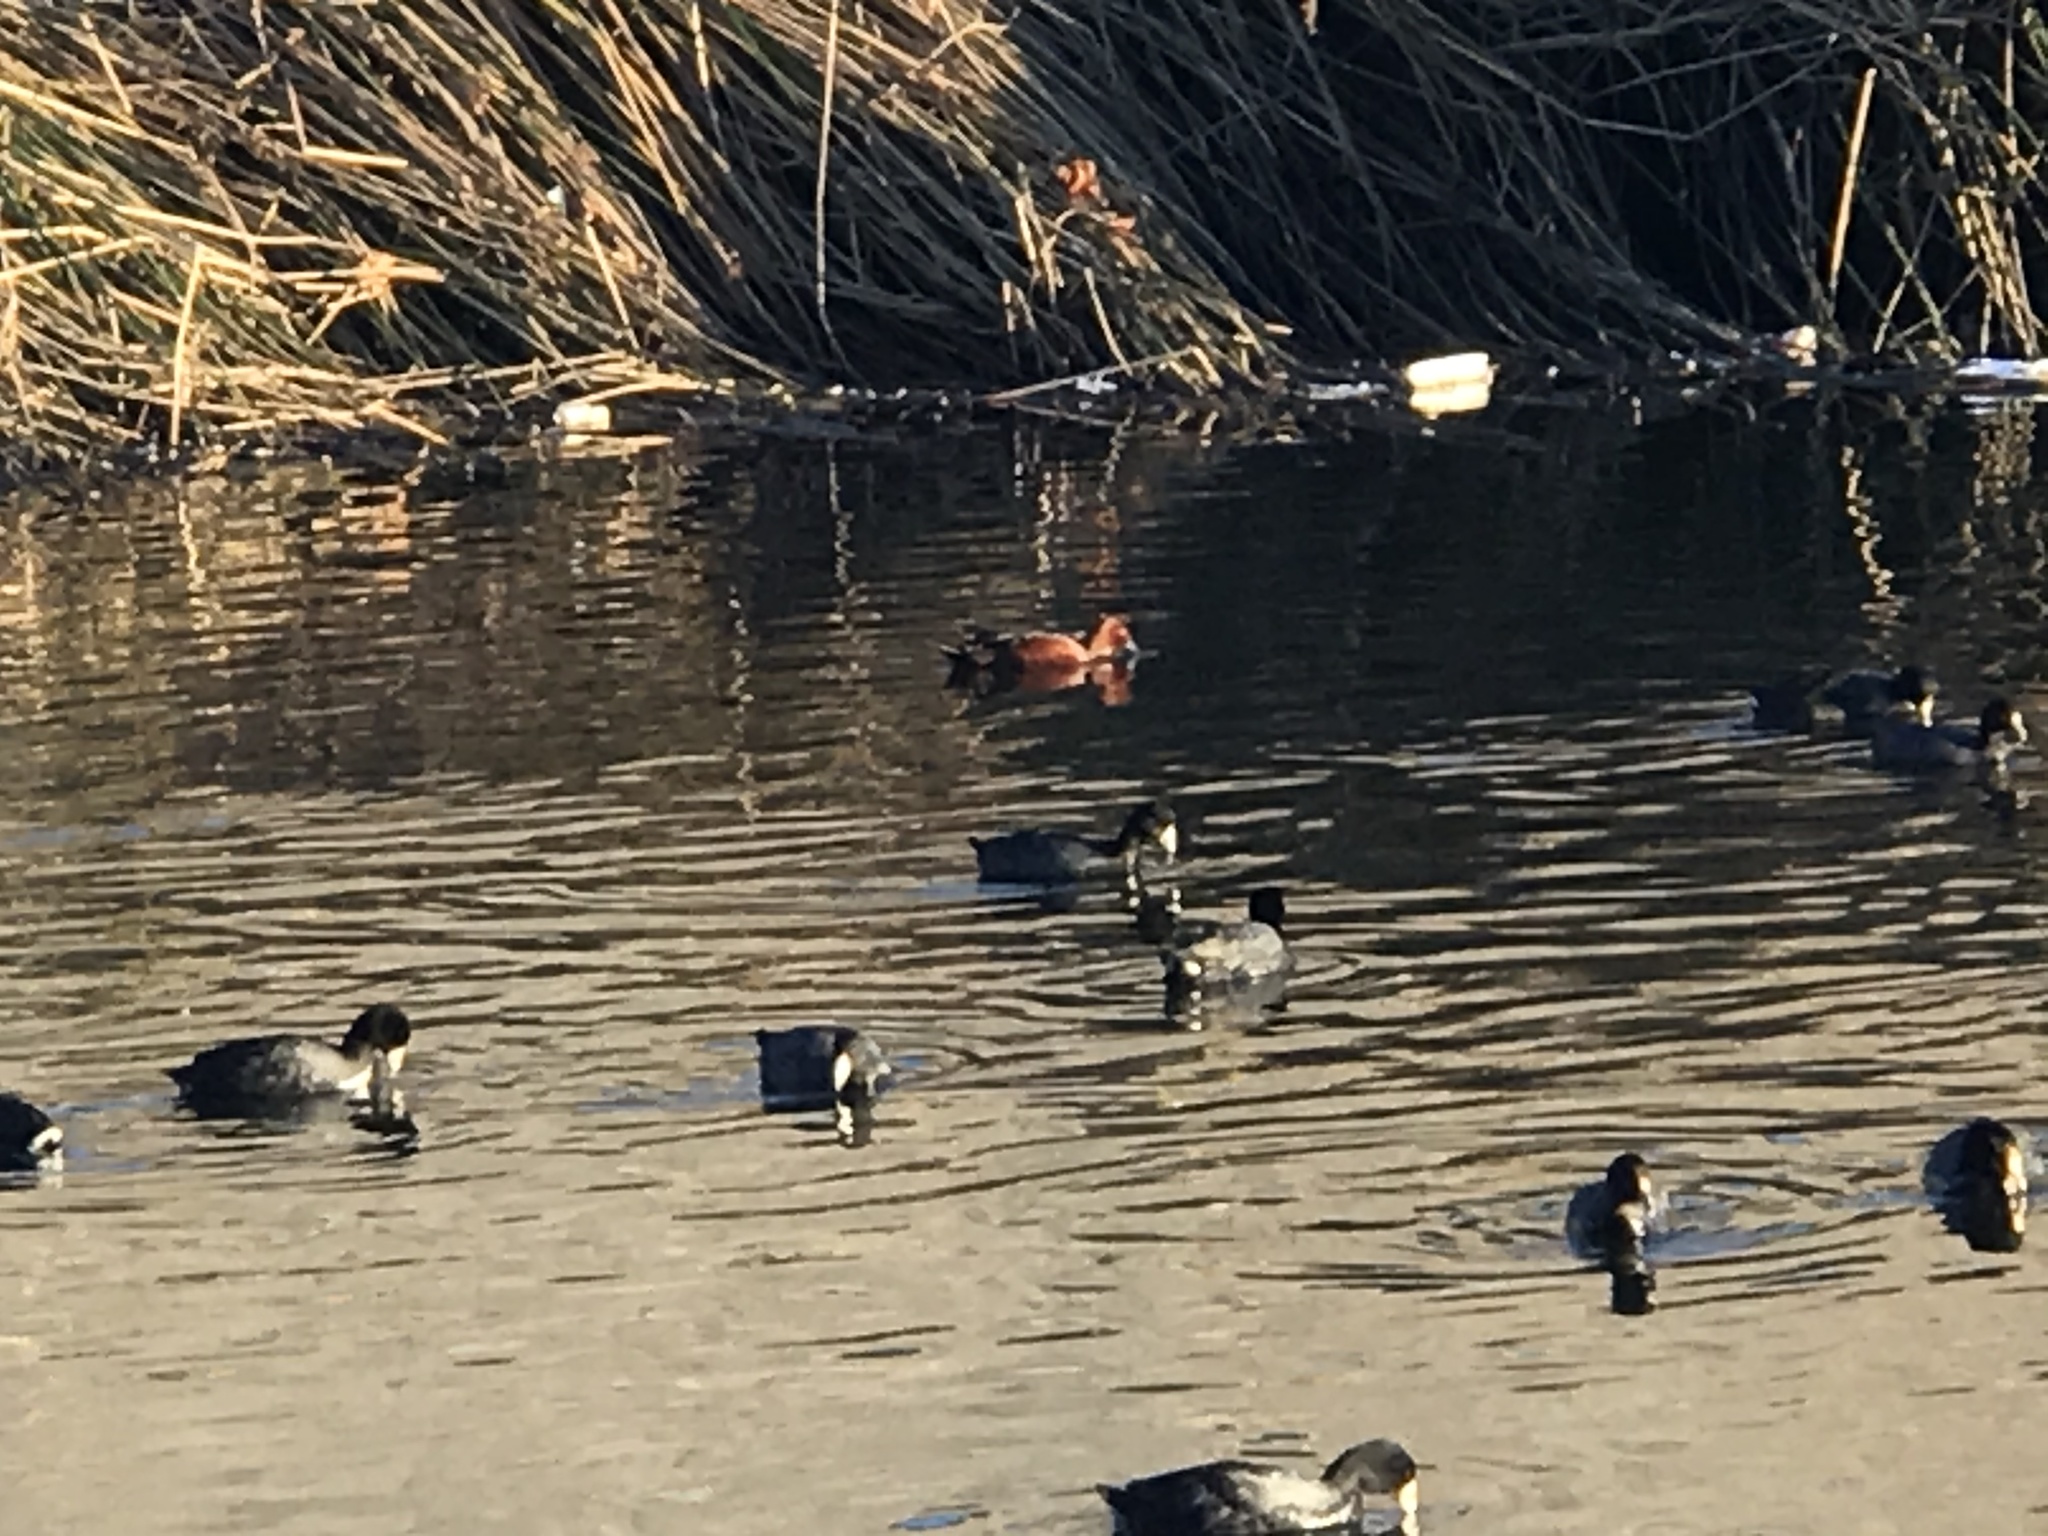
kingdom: Animalia
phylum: Chordata
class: Aves
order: Anseriformes
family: Anatidae
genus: Spatula
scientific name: Spatula cyanoptera
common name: Cinnamon teal
